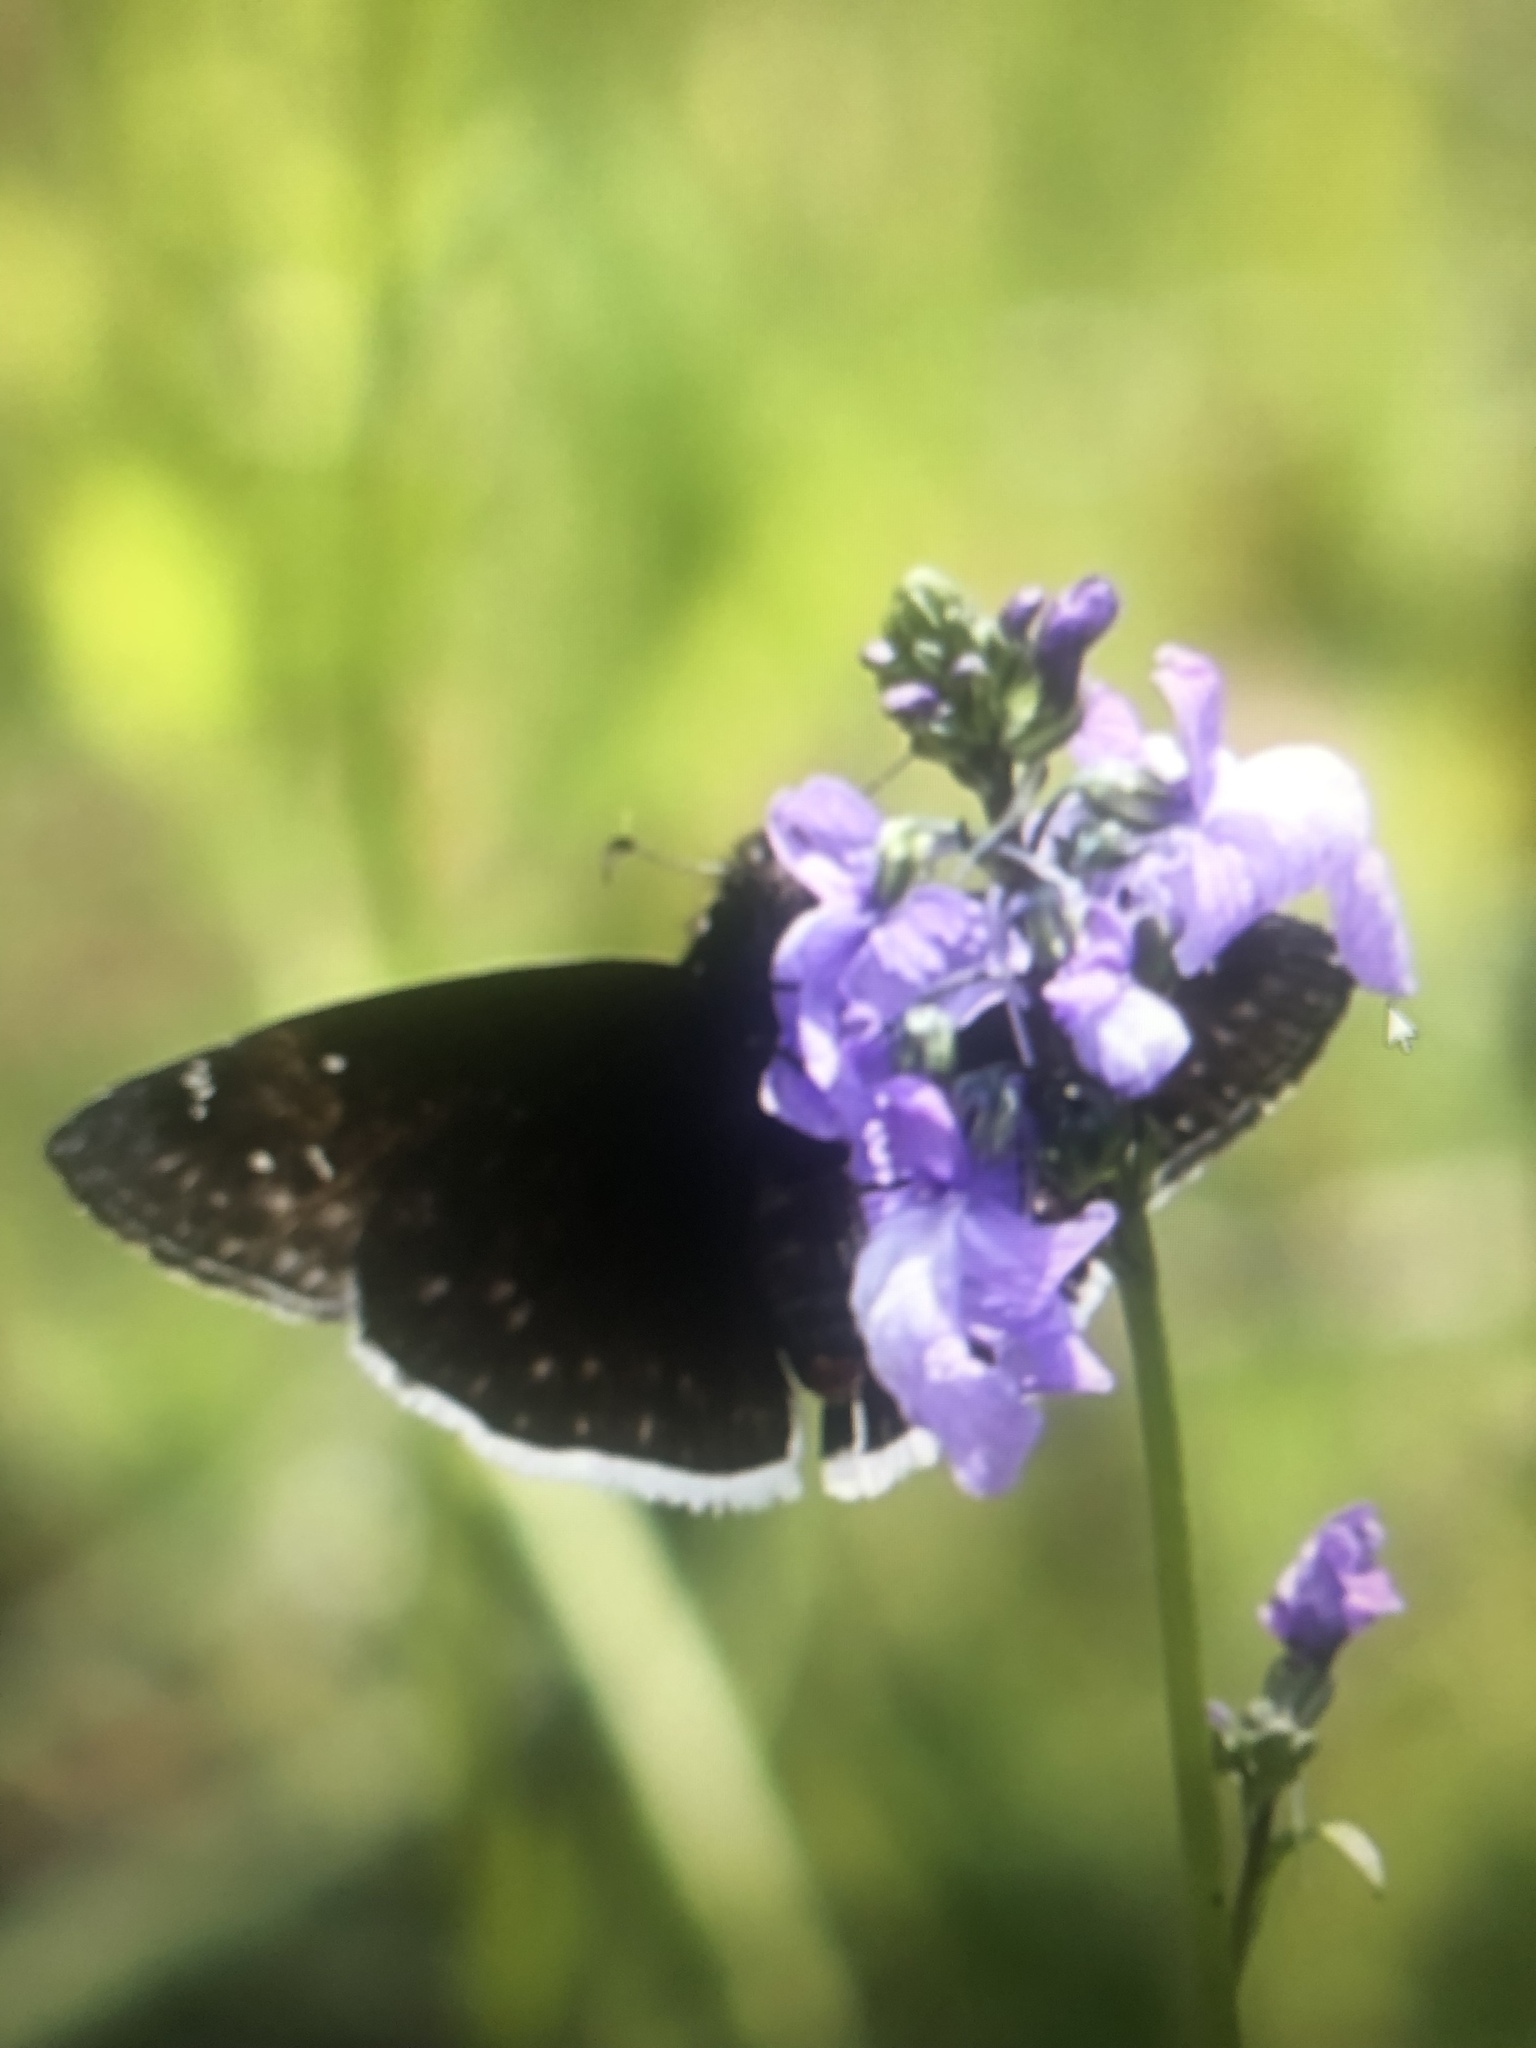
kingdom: Animalia
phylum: Arthropoda
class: Insecta
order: Lepidoptera
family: Hesperiidae
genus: Erynnis
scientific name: Erynnis funeralis
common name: Funereal duskywing
